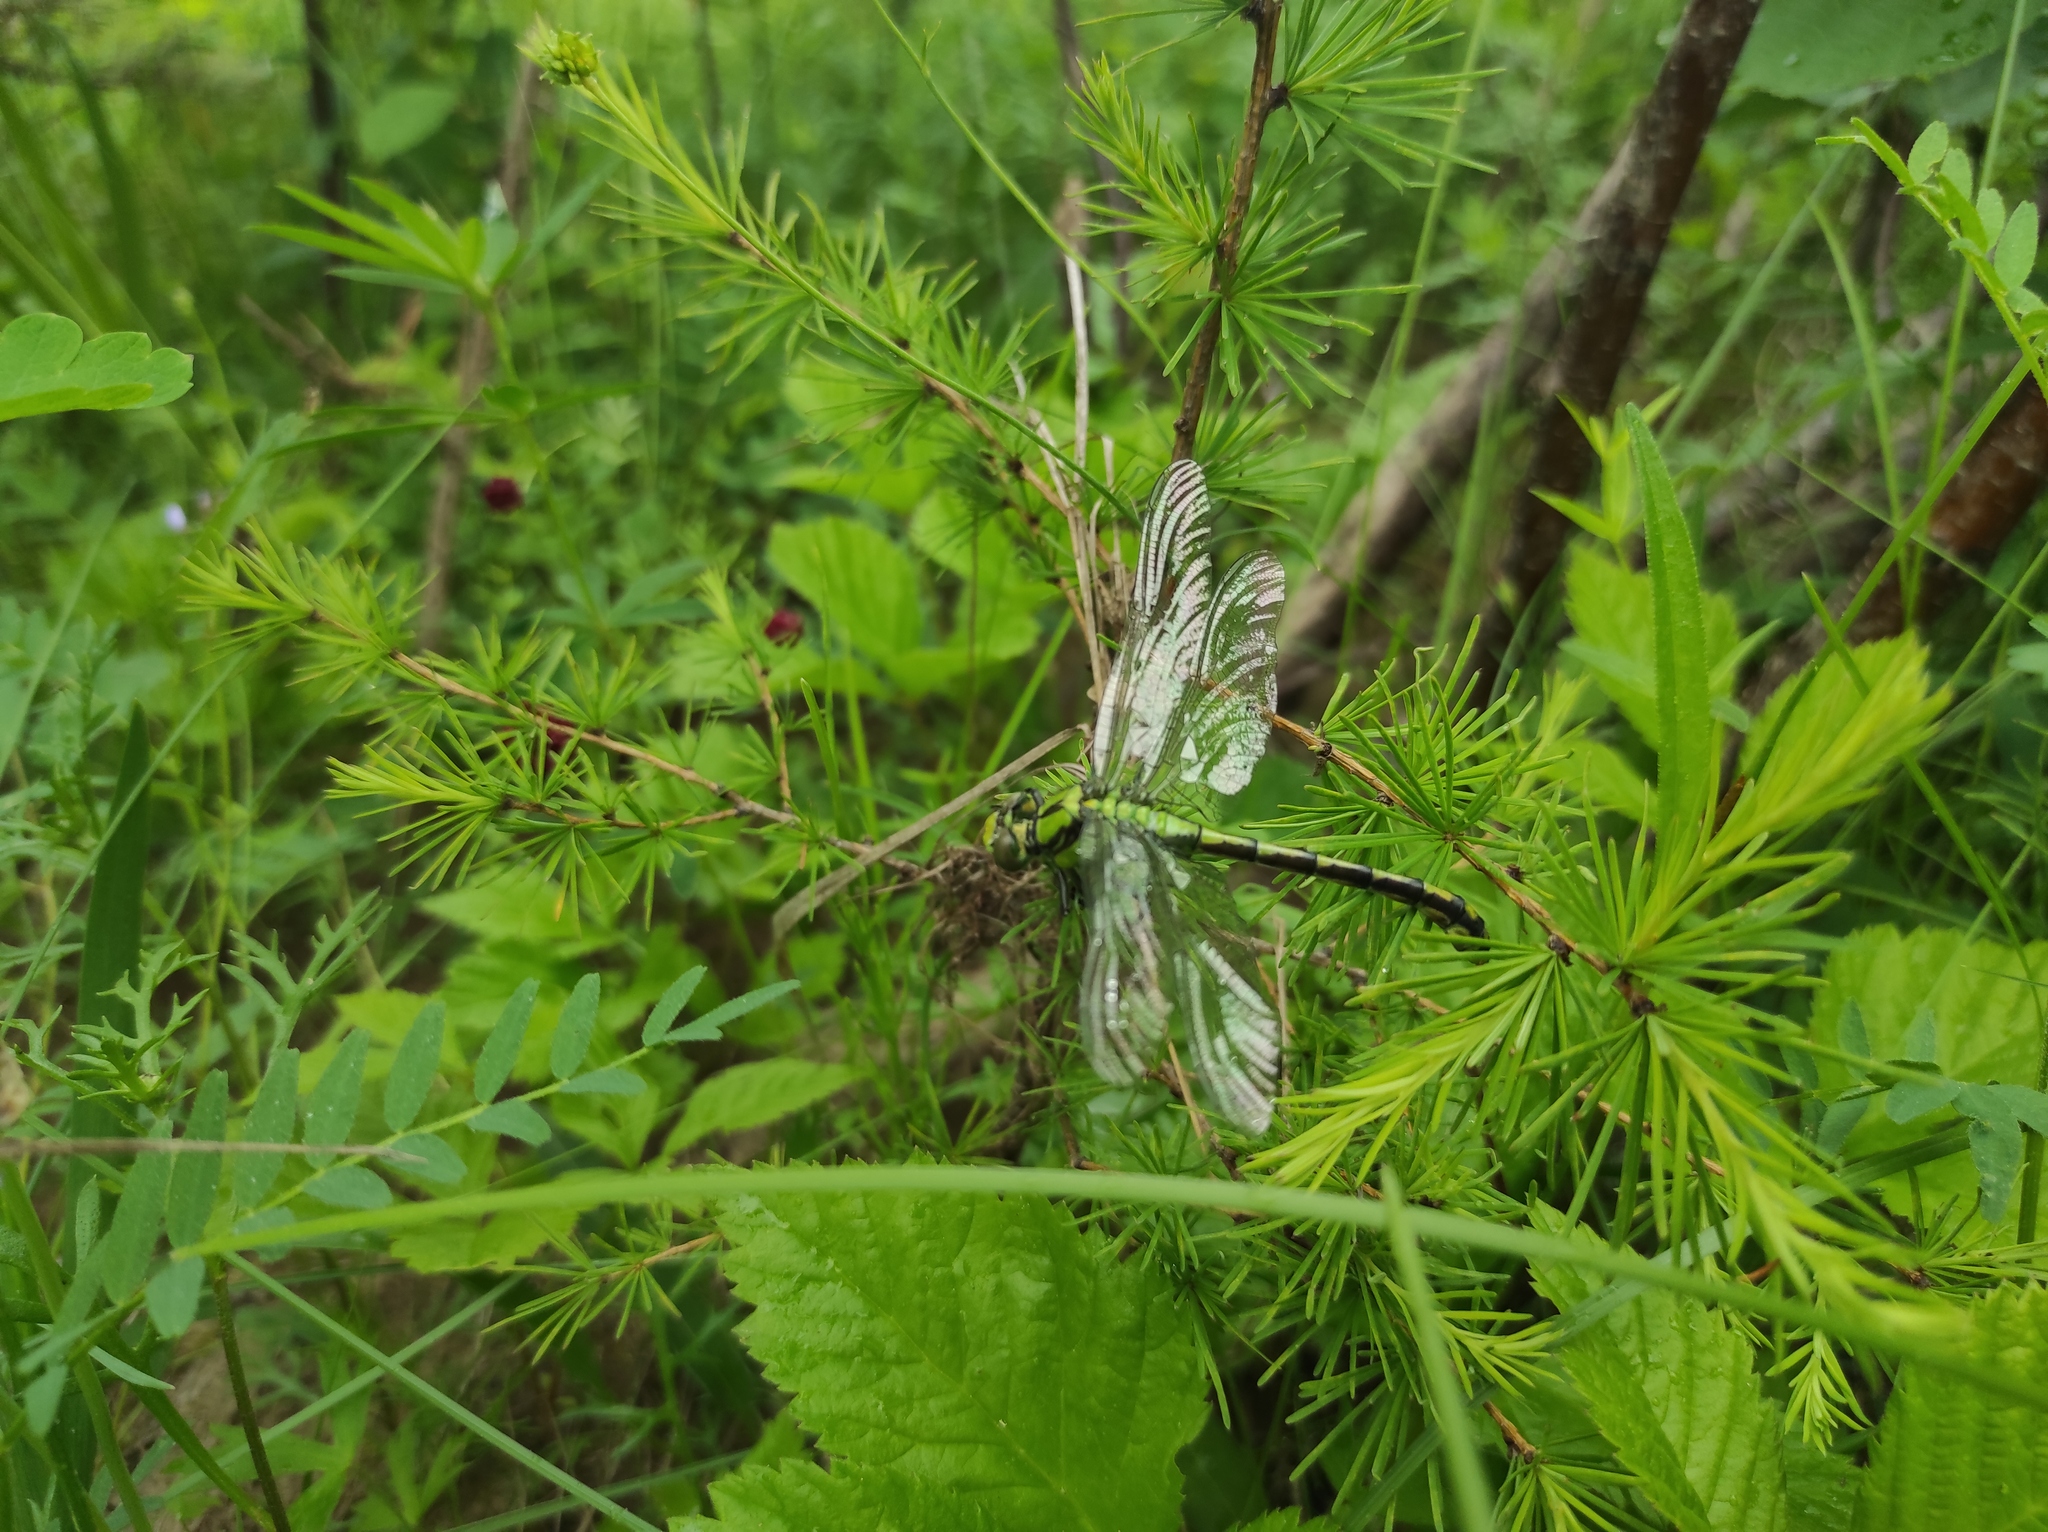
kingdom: Animalia
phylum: Arthropoda
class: Insecta
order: Odonata
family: Gomphidae
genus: Ophiogomphus
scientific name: Ophiogomphus obscurus
